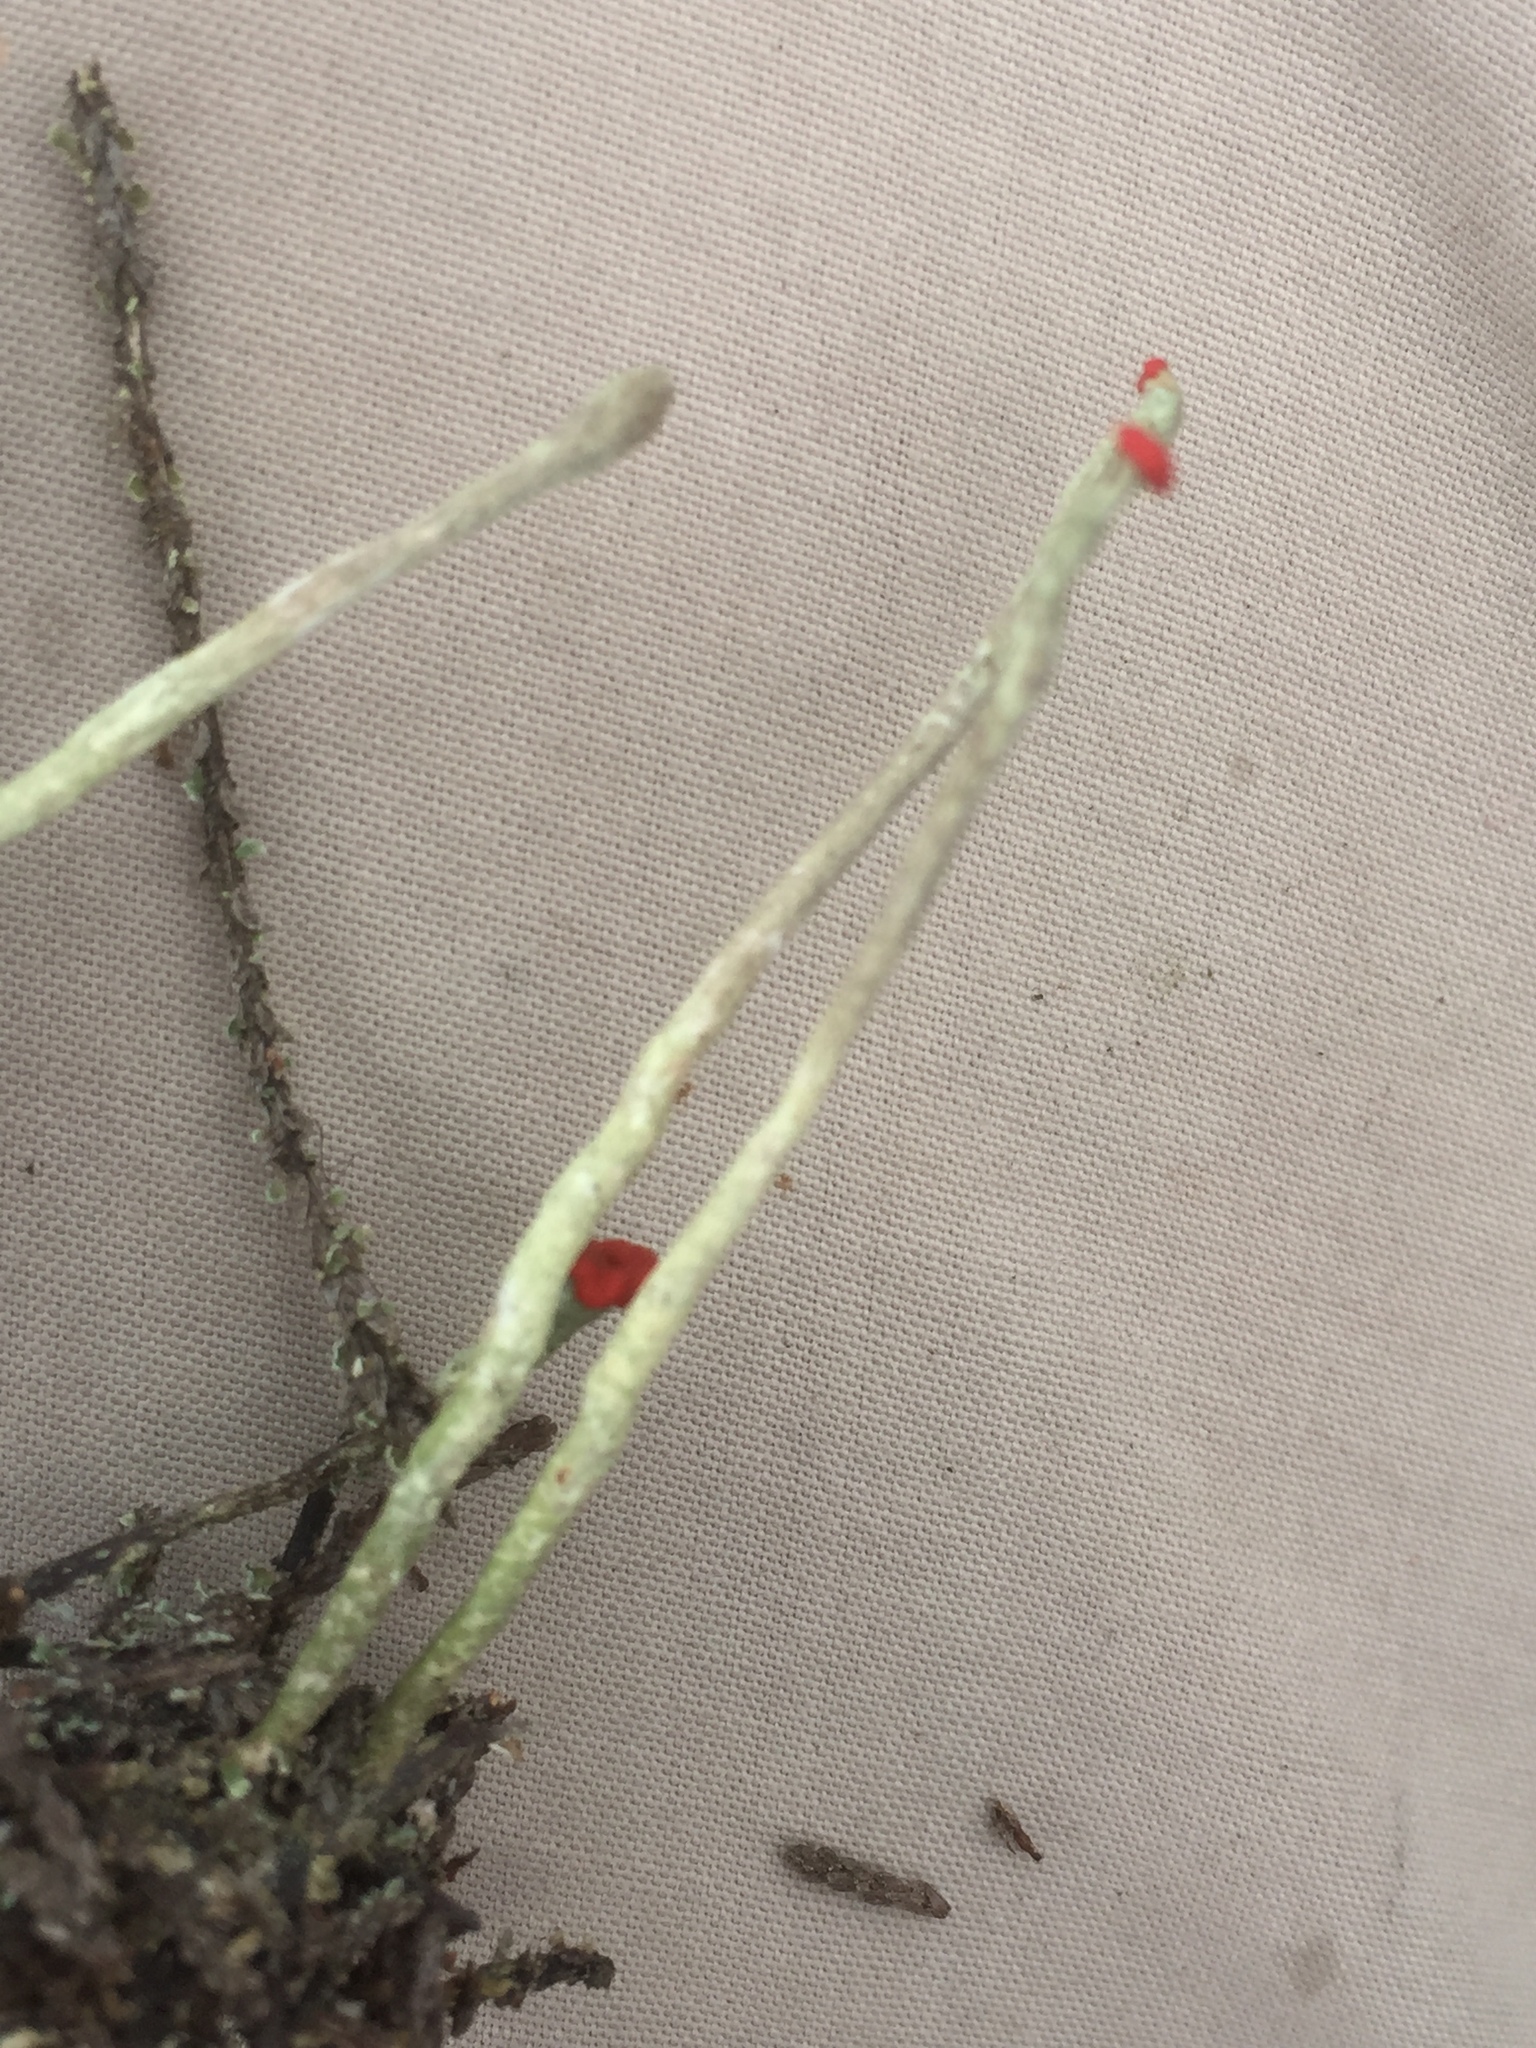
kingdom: Fungi
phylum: Ascomycota
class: Lecanoromycetes
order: Lecanorales
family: Cladoniaceae
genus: Cladonia
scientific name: Cladonia macilenta
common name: Lipstick powderhorn
